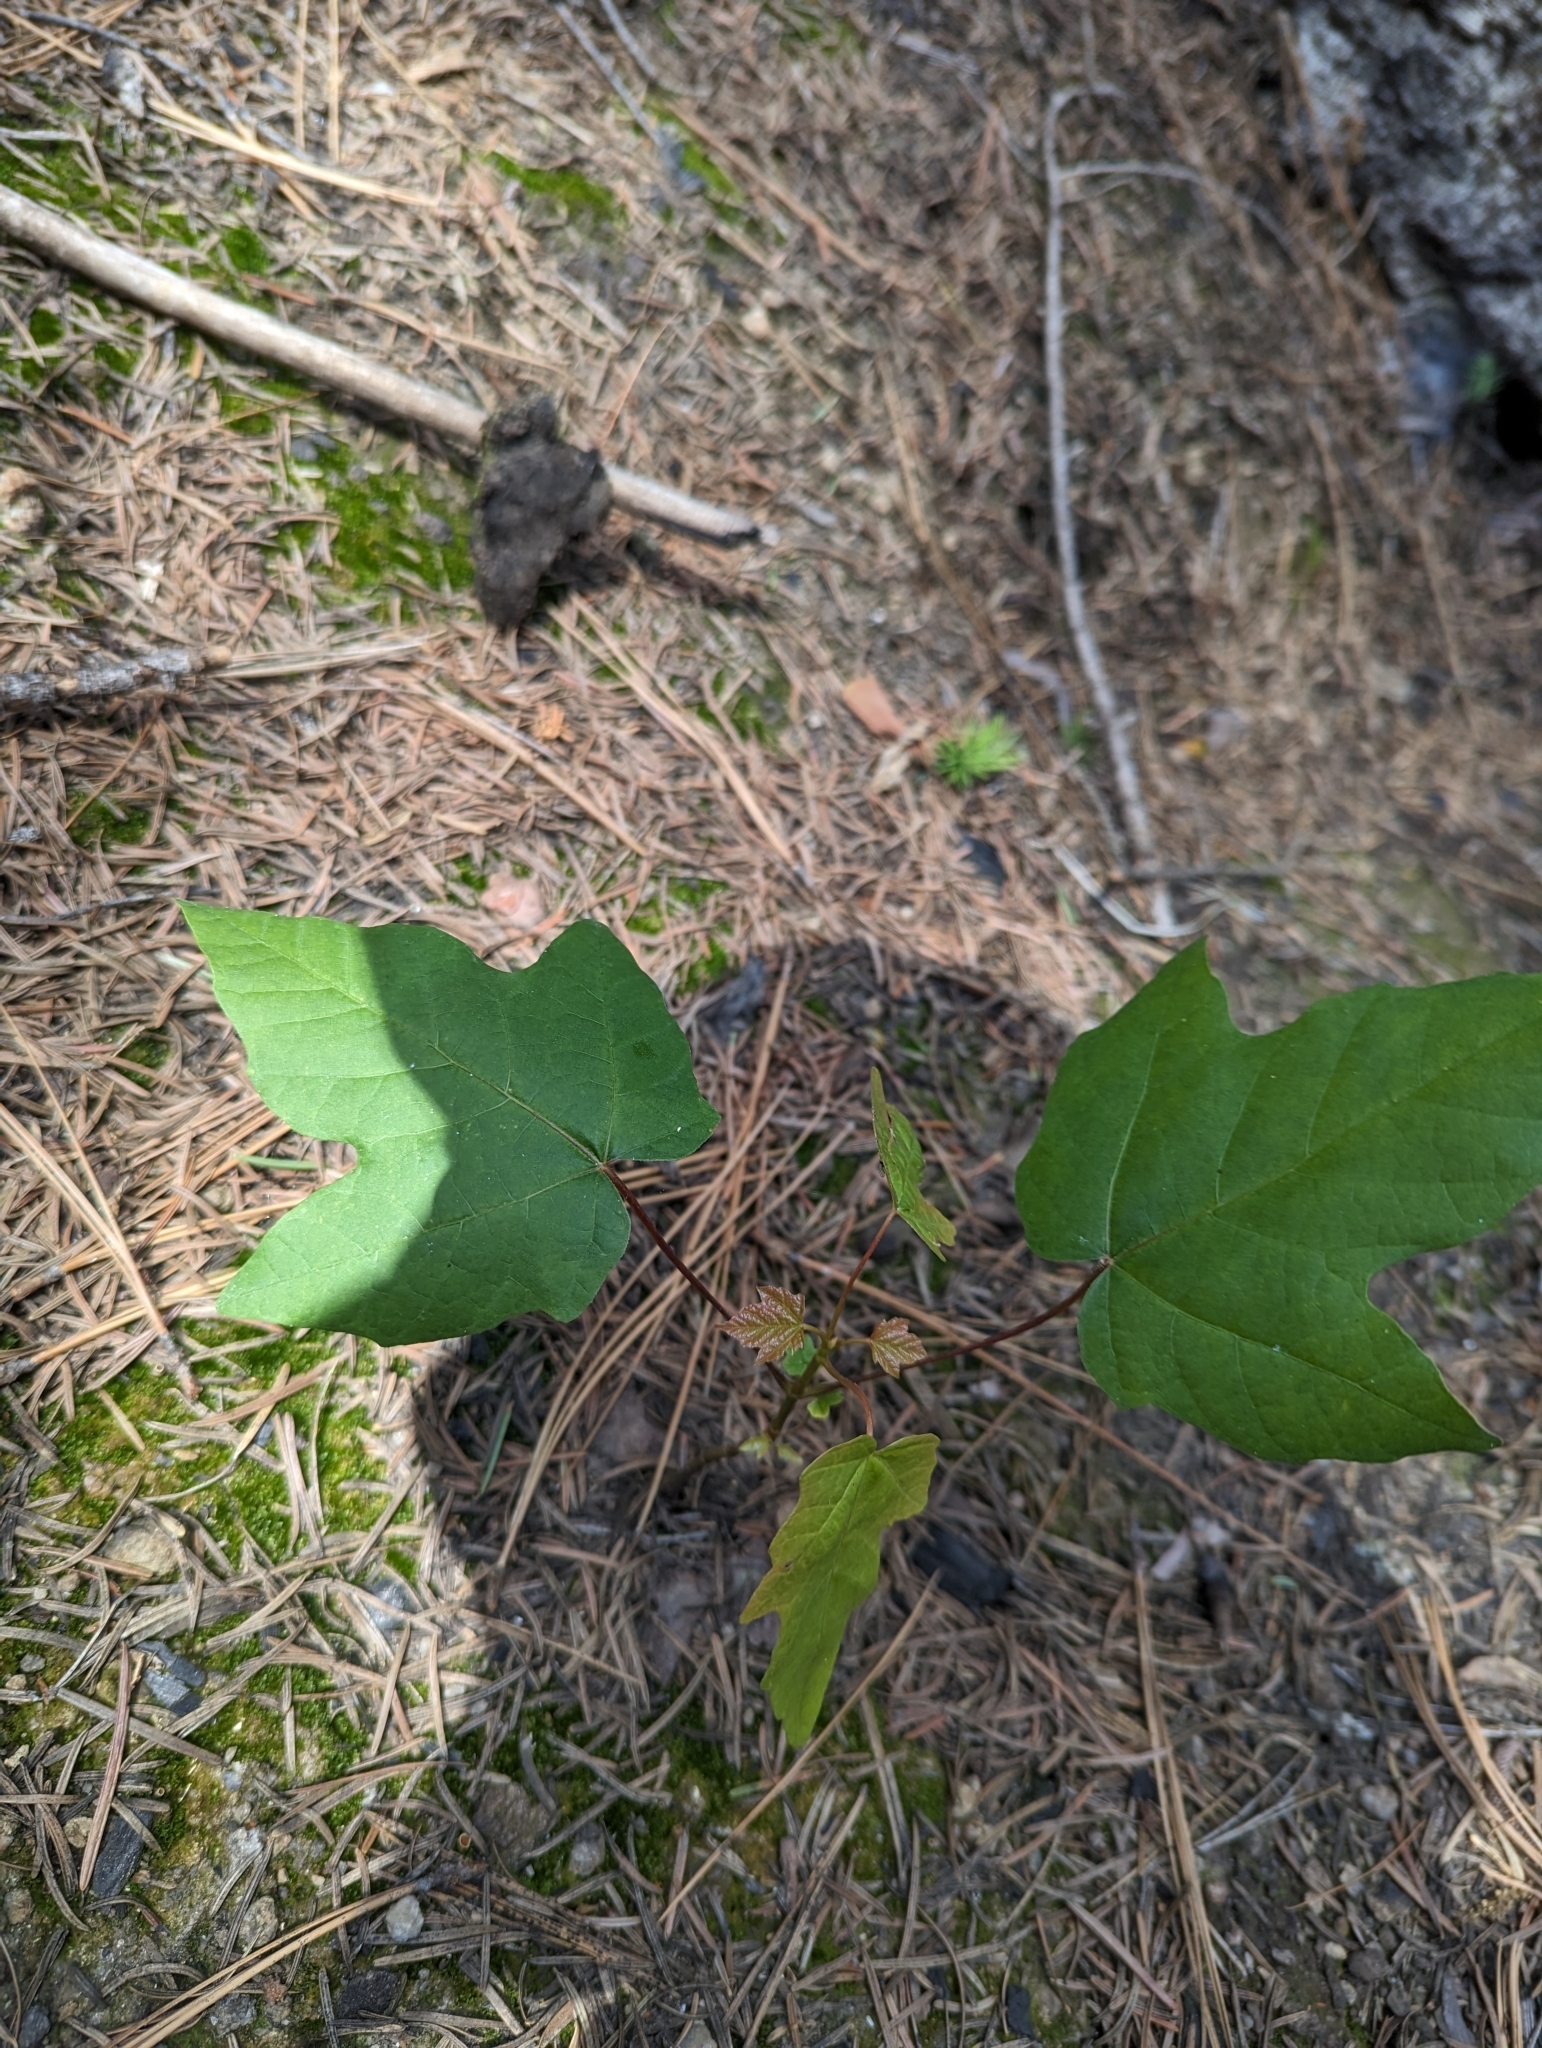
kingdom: Plantae
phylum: Tracheophyta
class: Magnoliopsida
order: Sapindales
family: Sapindaceae
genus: Acer
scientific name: Acer macrophyllum
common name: Oregon maple
